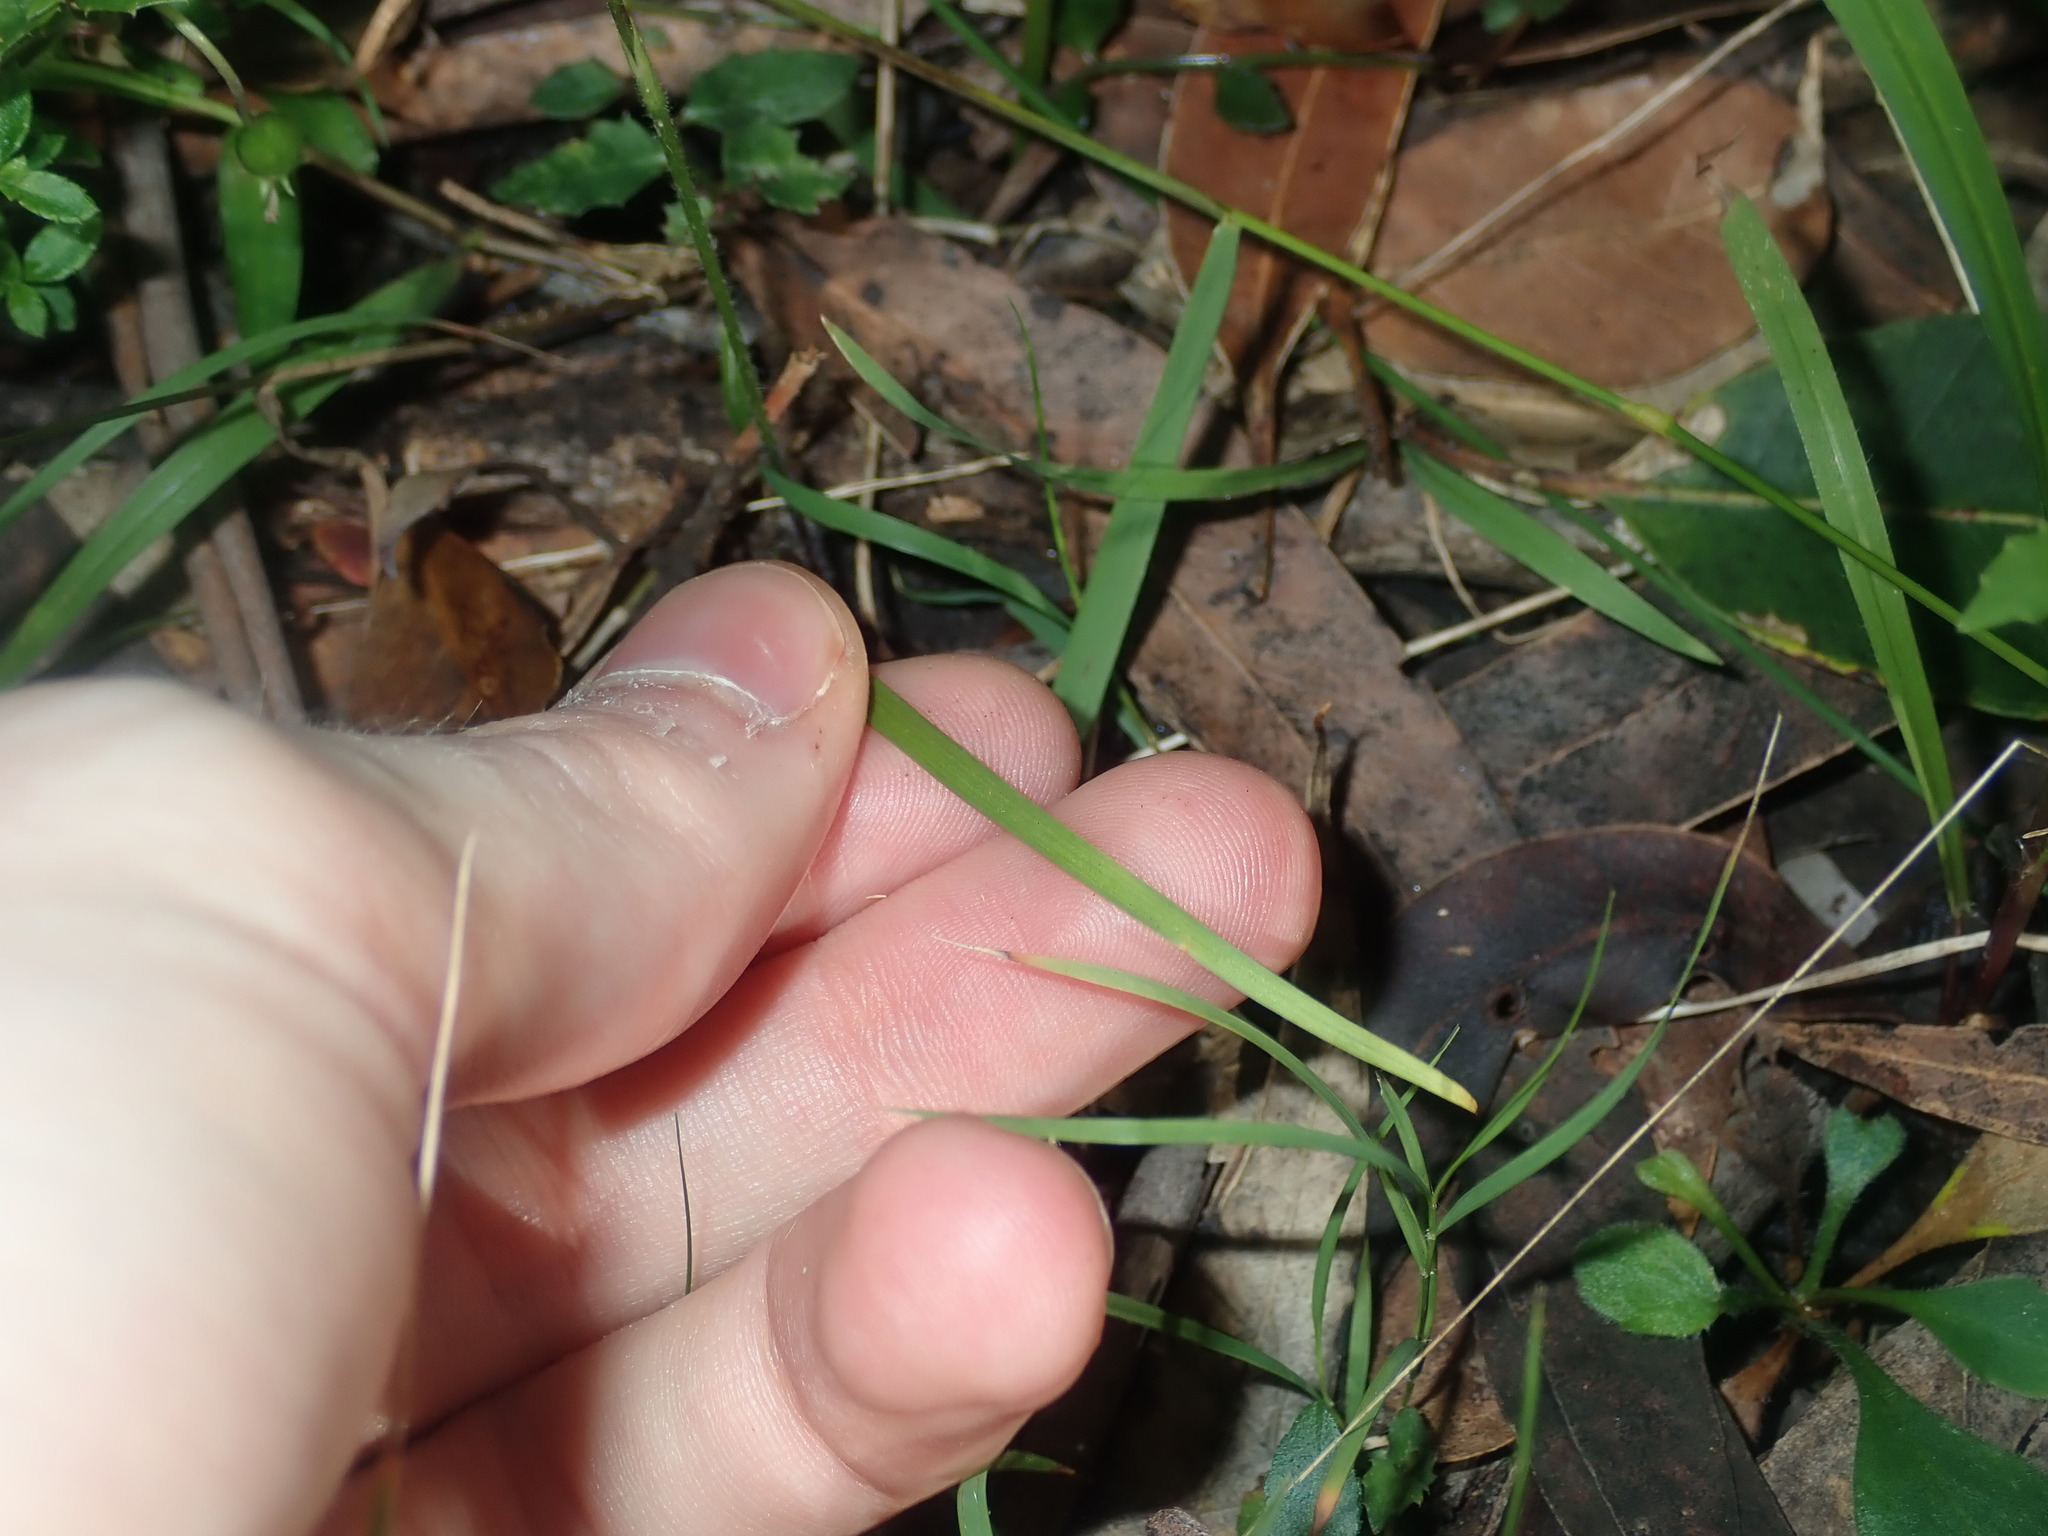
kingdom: Plantae
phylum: Tracheophyta
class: Liliopsida
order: Asparagales
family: Orchidaceae
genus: Caladenia
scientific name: Caladenia picta
